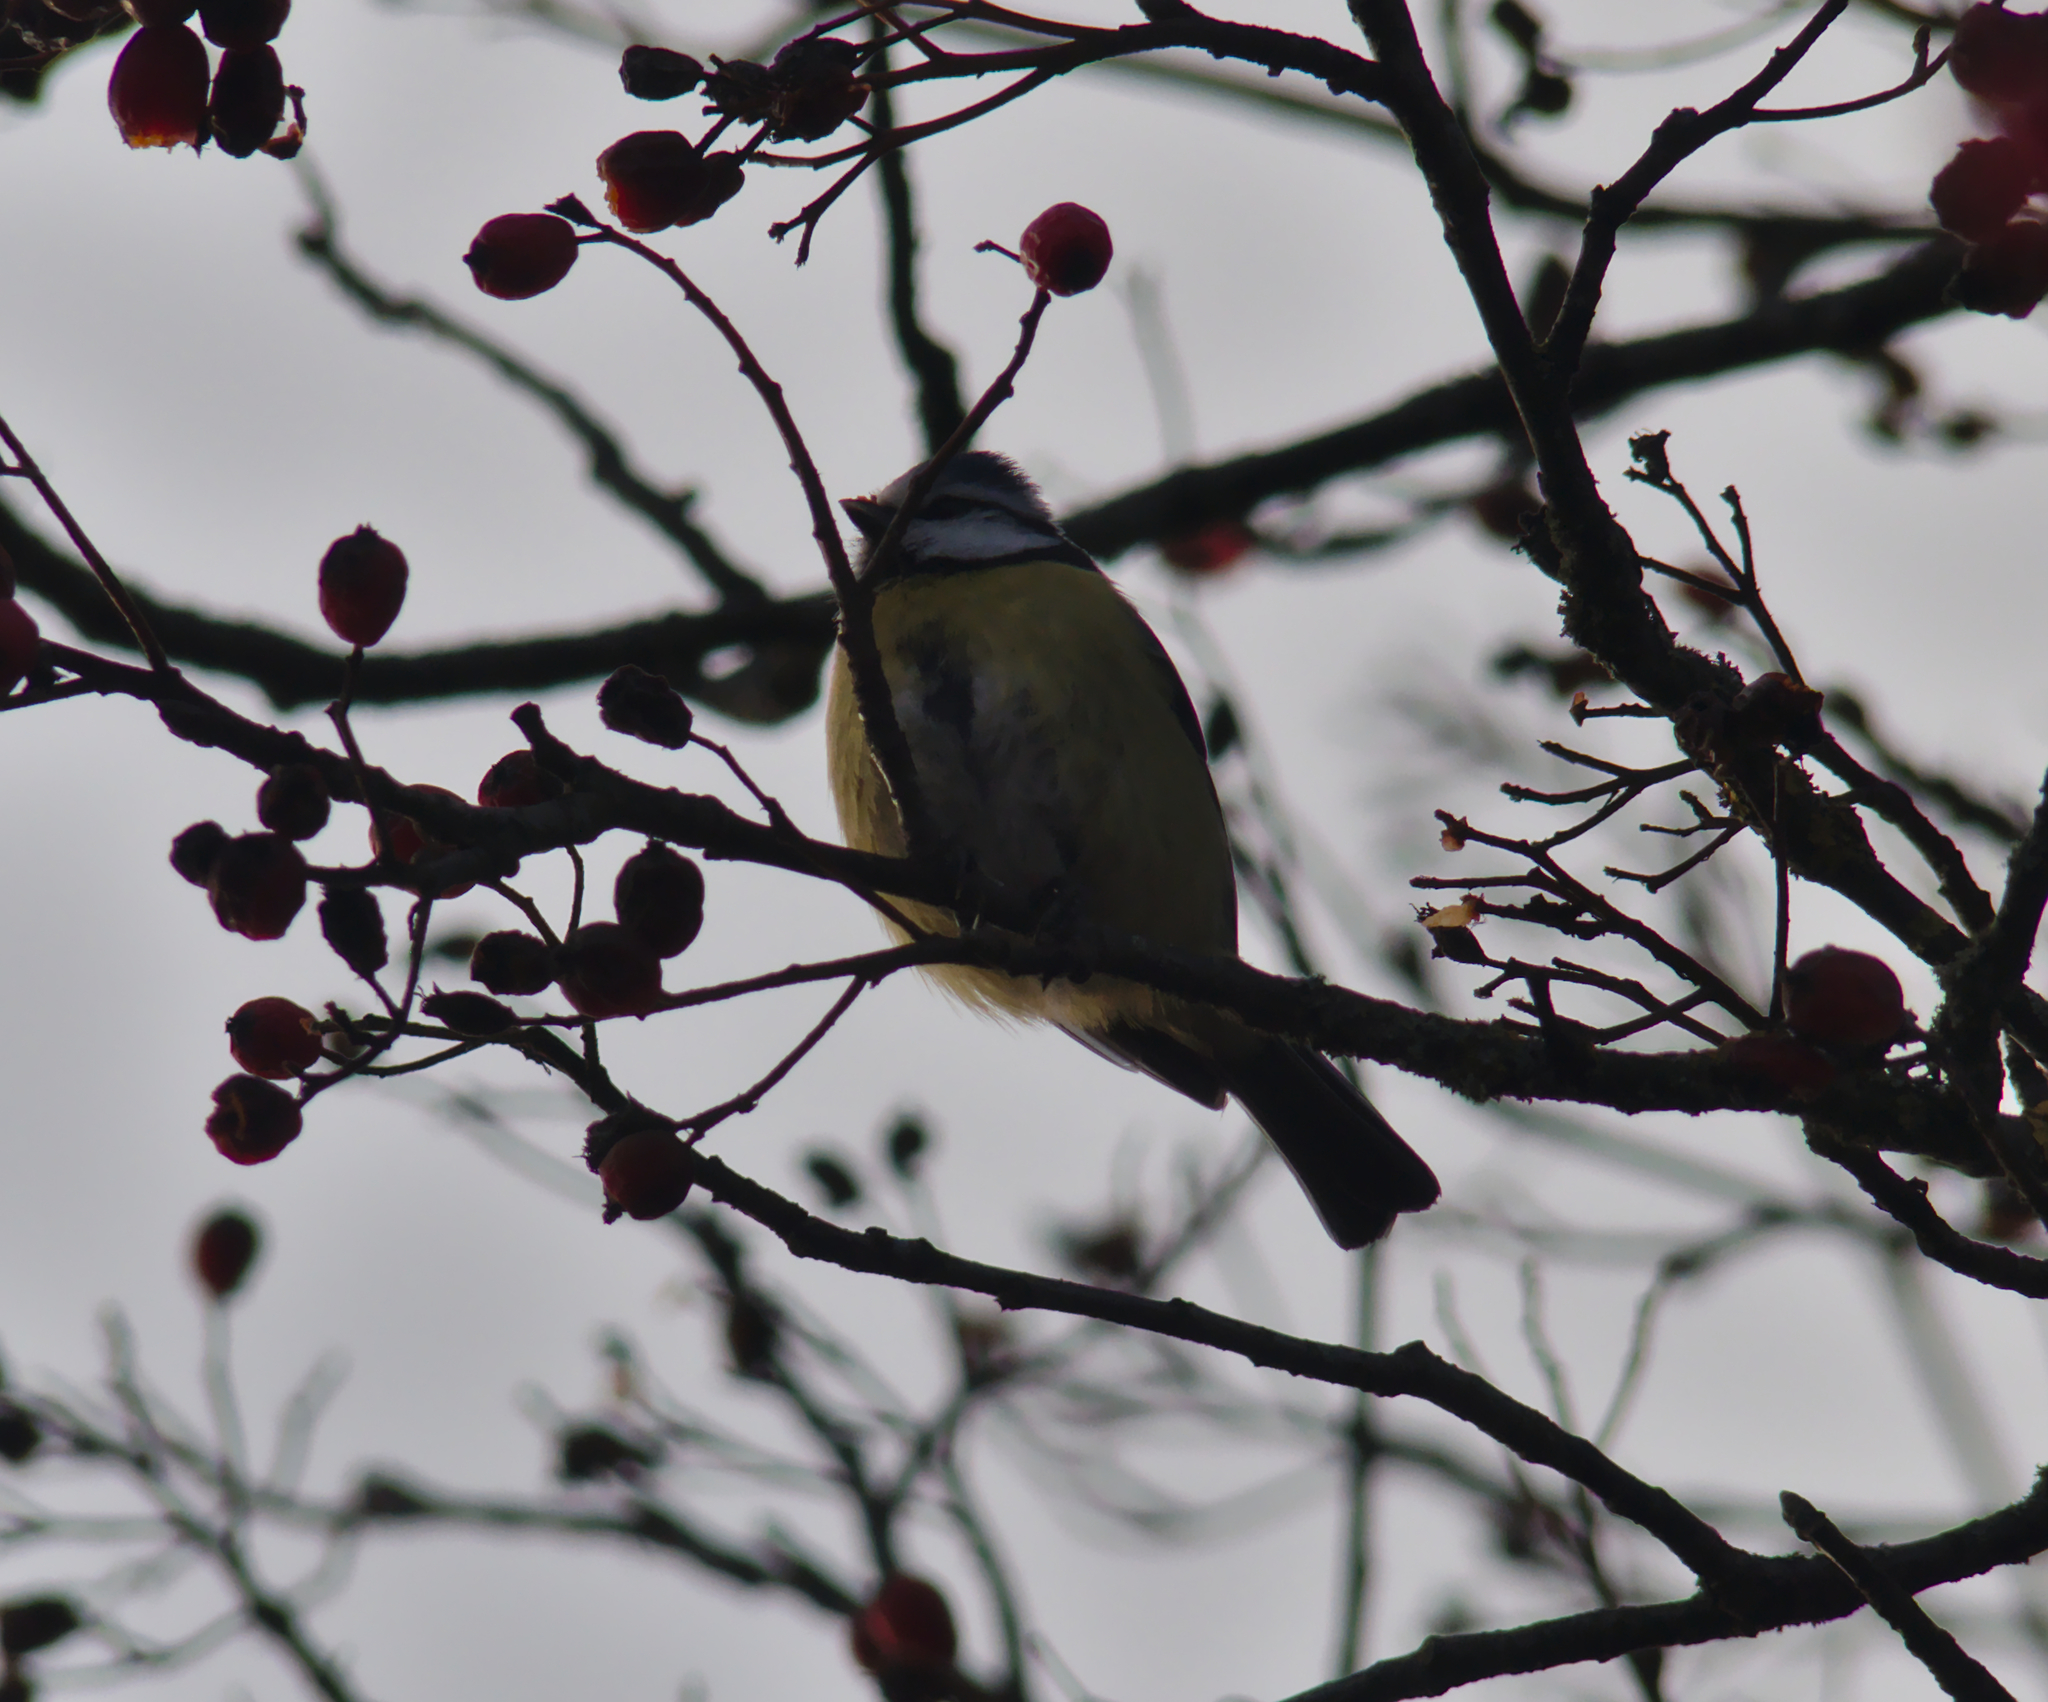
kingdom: Animalia
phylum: Chordata
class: Aves
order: Passeriformes
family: Paridae
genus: Cyanistes
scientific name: Cyanistes caeruleus
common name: Eurasian blue tit
